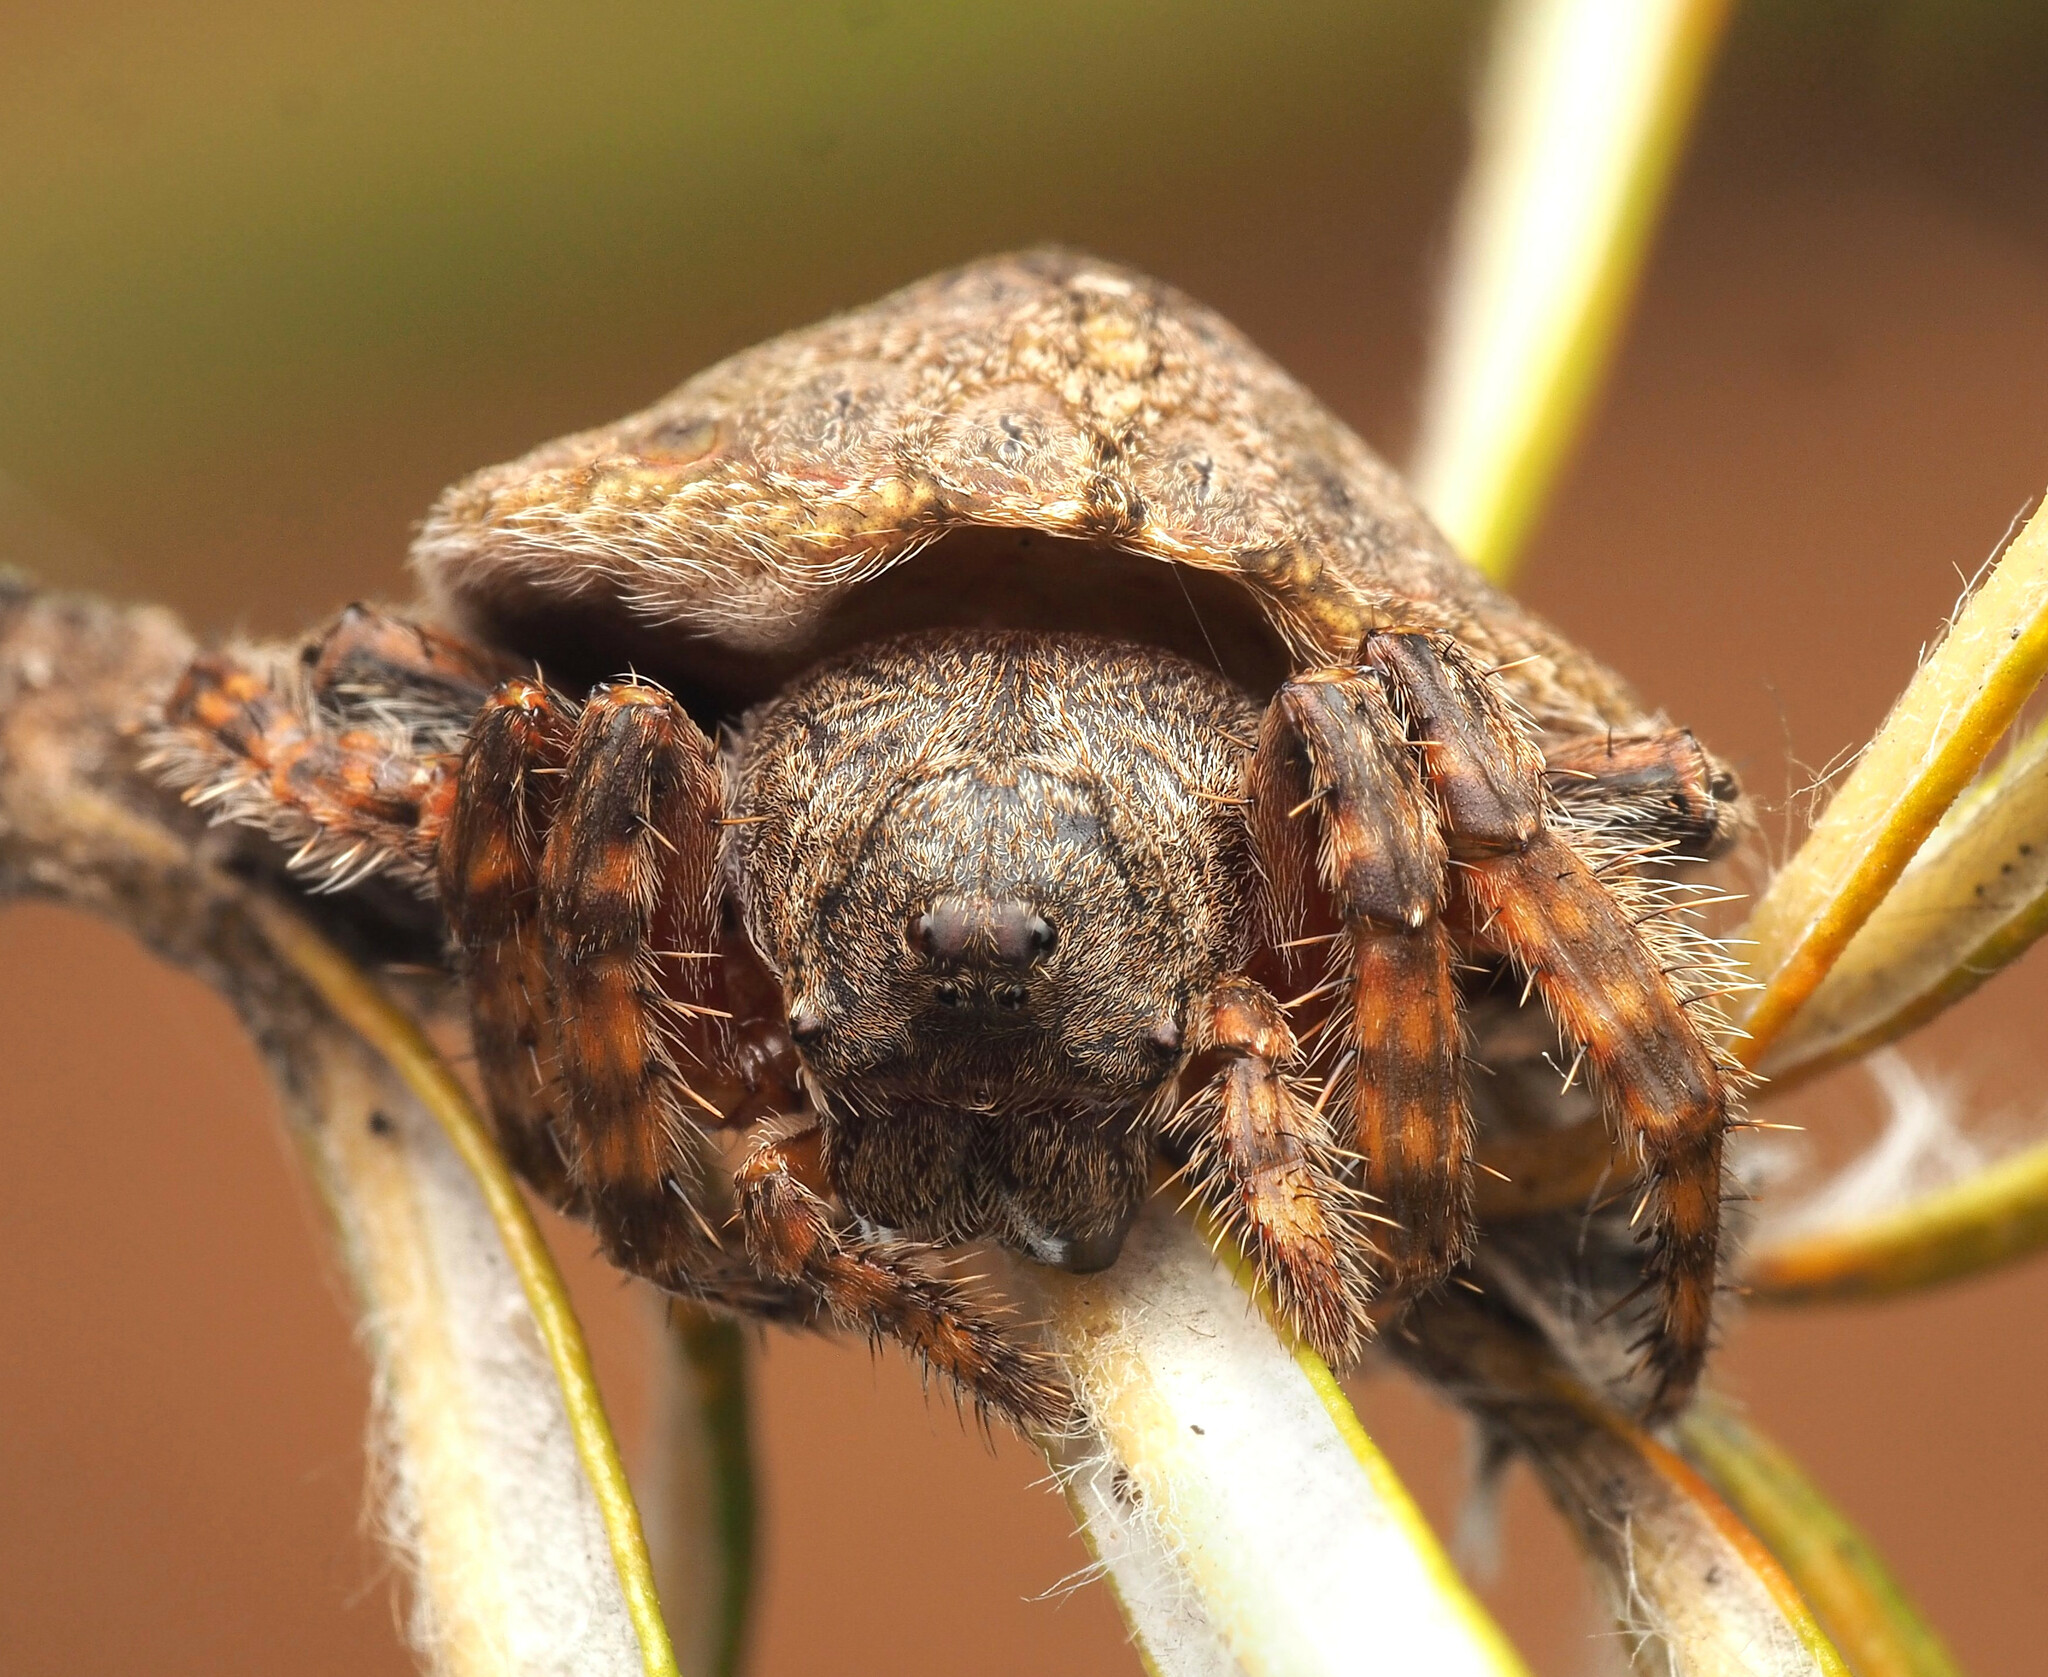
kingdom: Animalia
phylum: Arthropoda
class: Arachnida
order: Araneae
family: Araneidae
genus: Dolophones
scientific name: Dolophones
